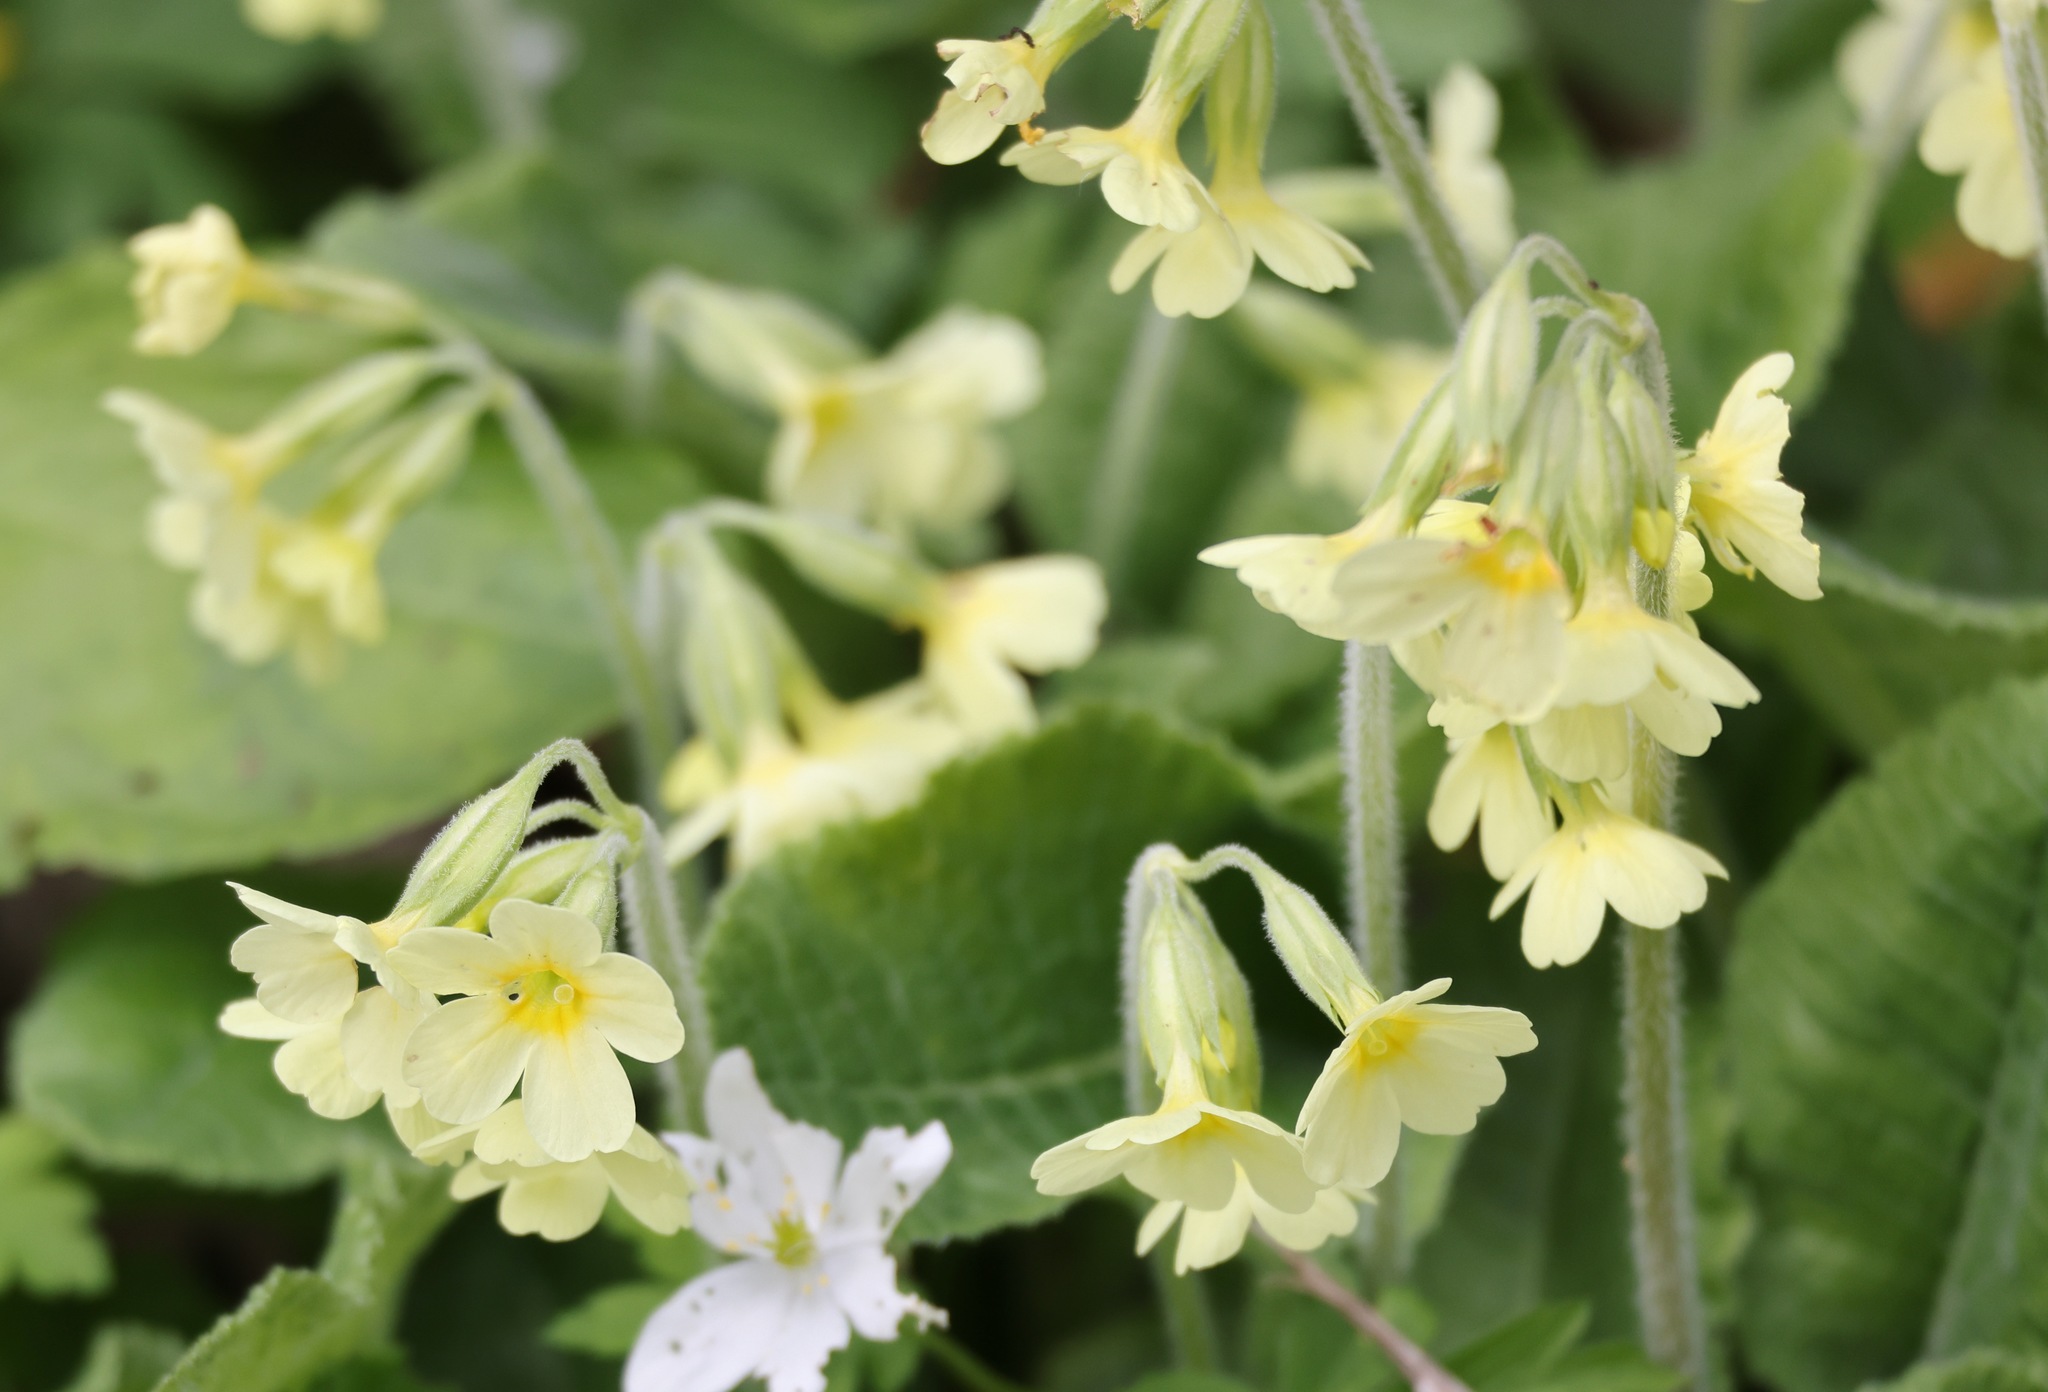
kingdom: Plantae
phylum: Tracheophyta
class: Magnoliopsida
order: Ericales
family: Primulaceae
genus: Primula
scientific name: Primula elatior
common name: Oxlip
